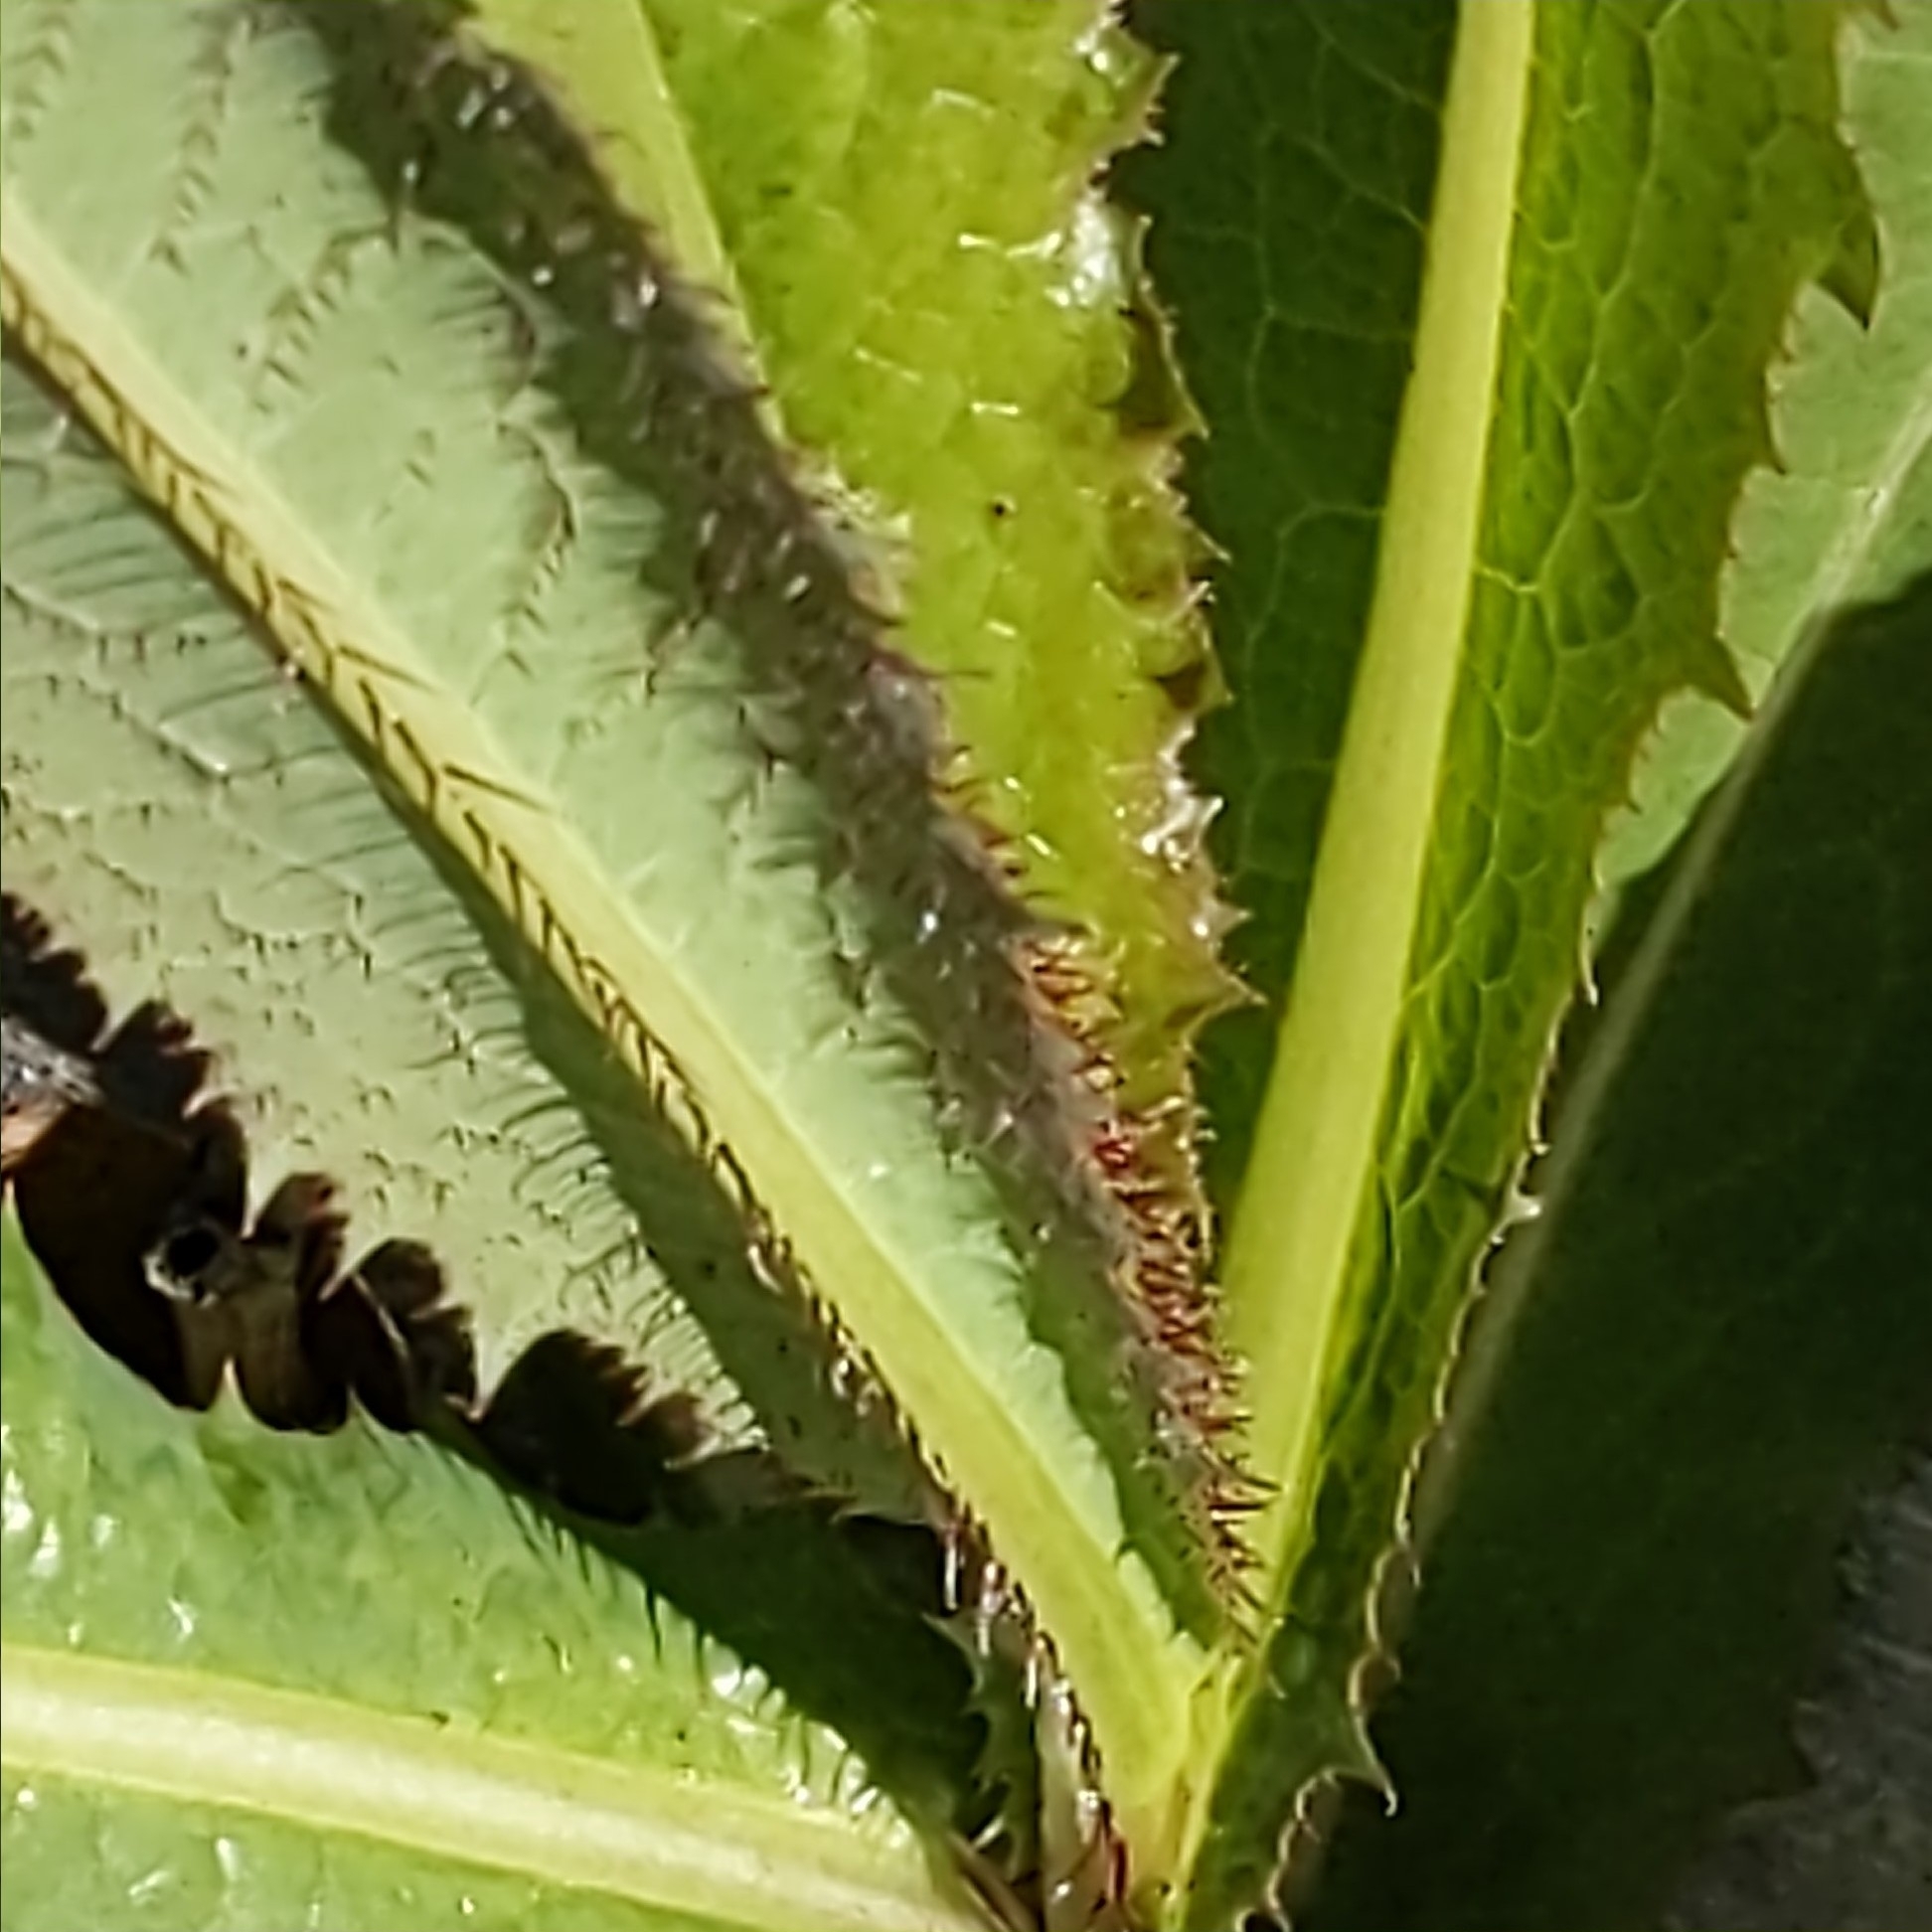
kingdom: Plantae
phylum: Tracheophyta
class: Magnoliopsida
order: Asterales
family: Asteraceae
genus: Lactuca
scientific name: Lactuca serriola
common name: Prickly lettuce
